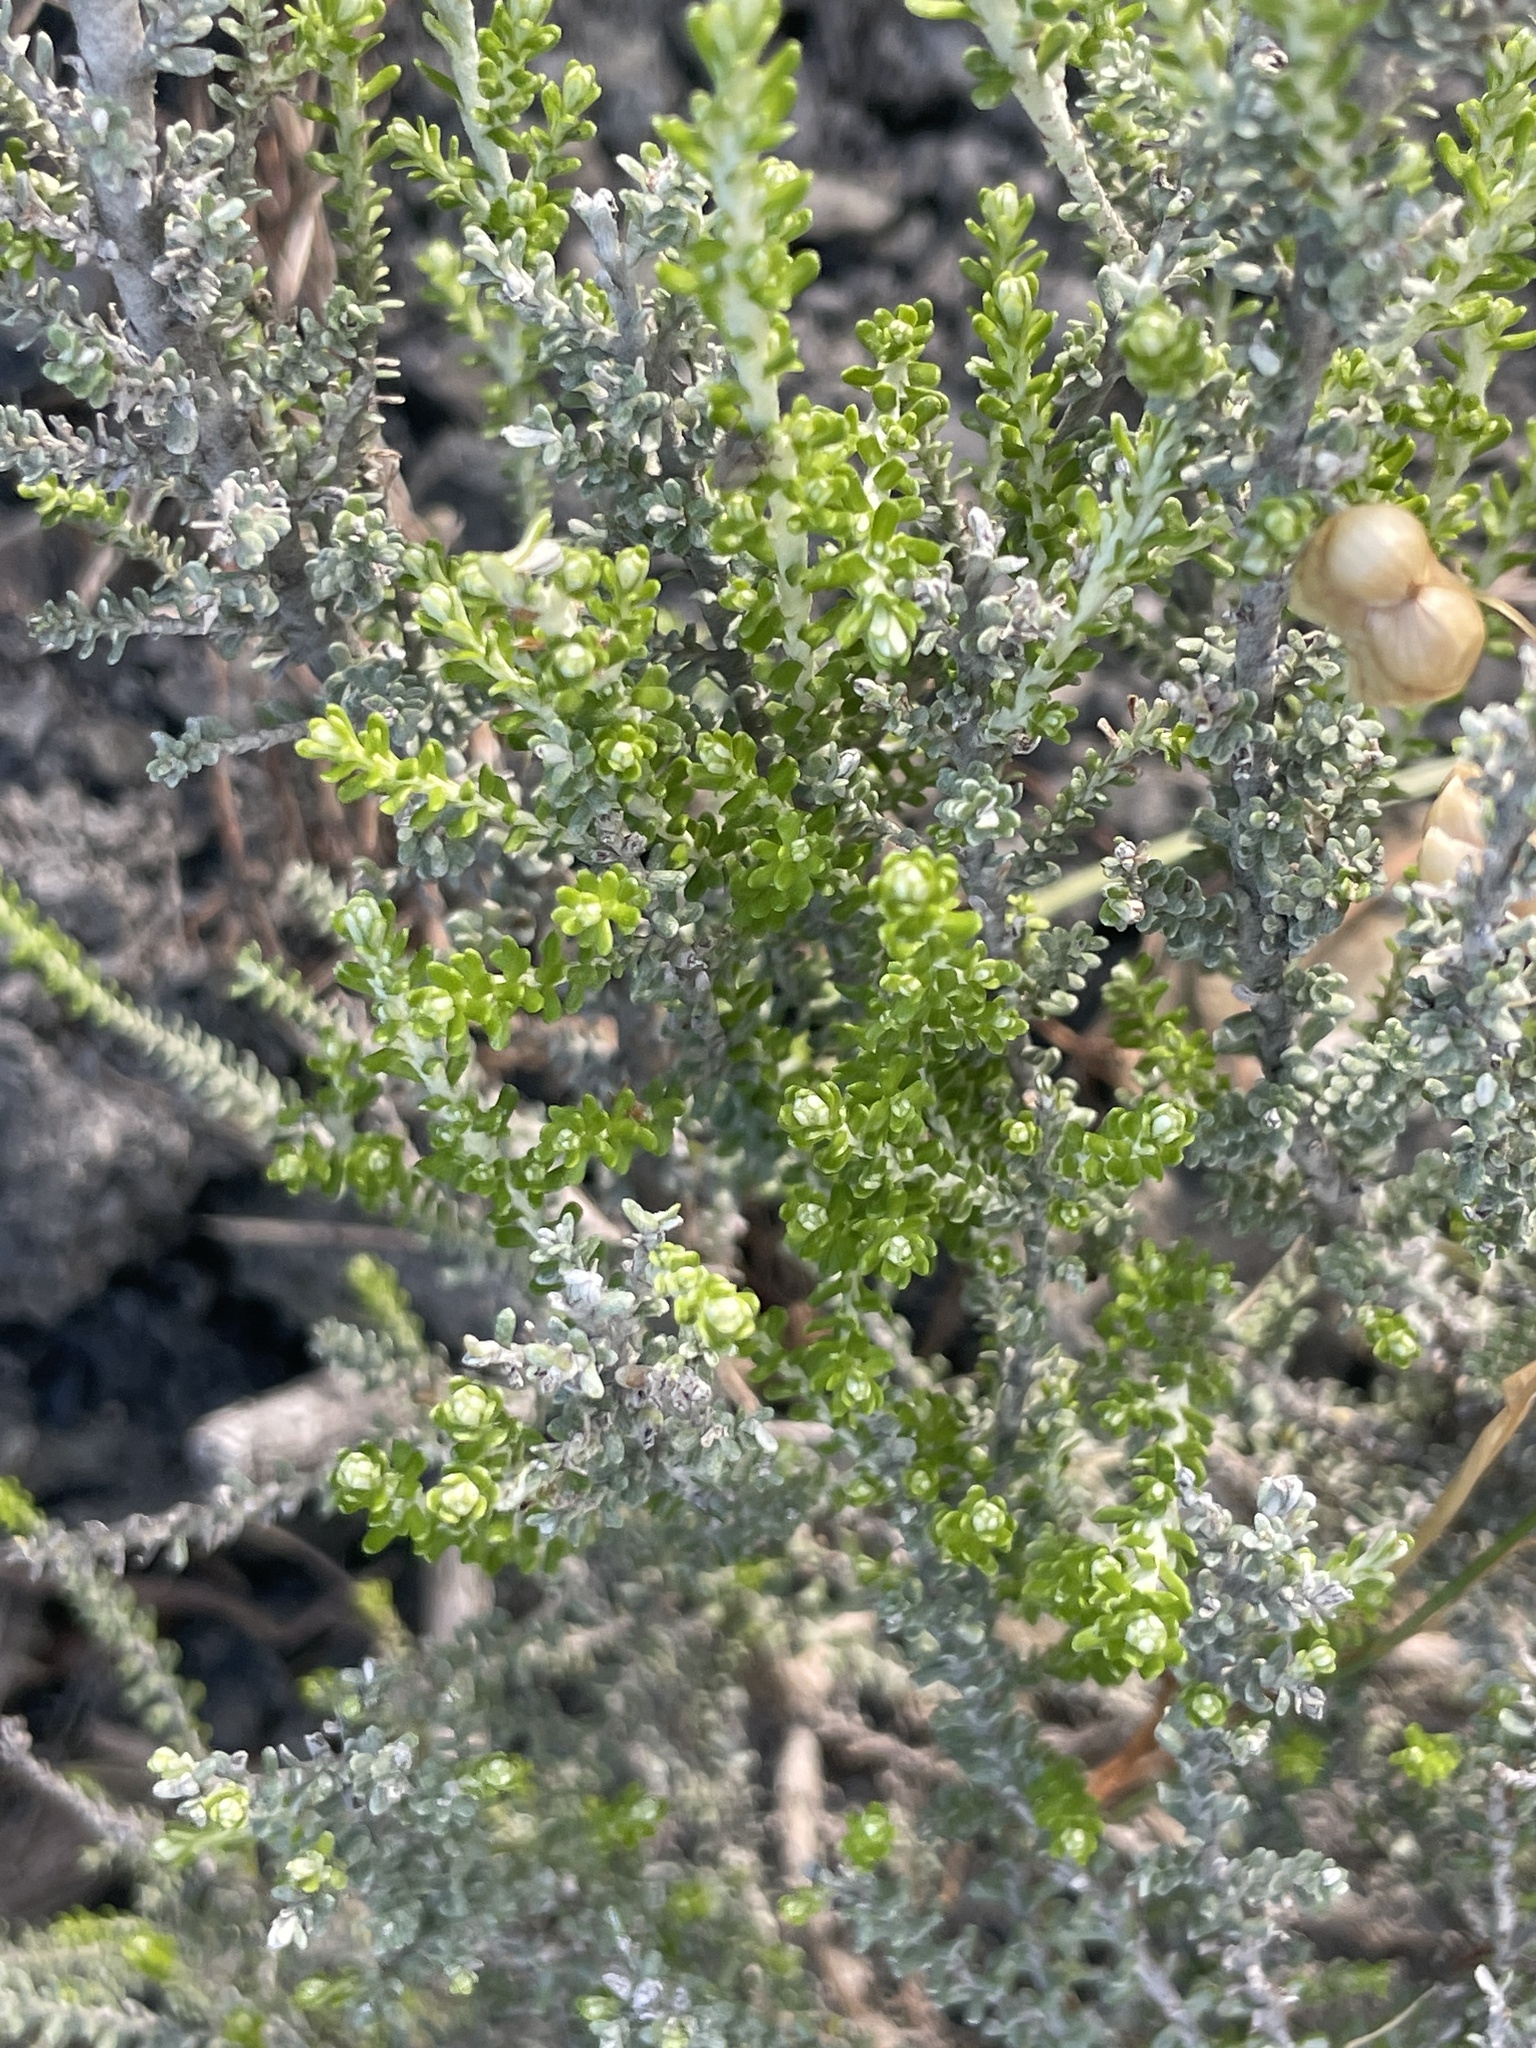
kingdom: Plantae
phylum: Tracheophyta
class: Magnoliopsida
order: Asterales
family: Asteraceae
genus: Ozothamnus
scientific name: Ozothamnus leptophyllus
